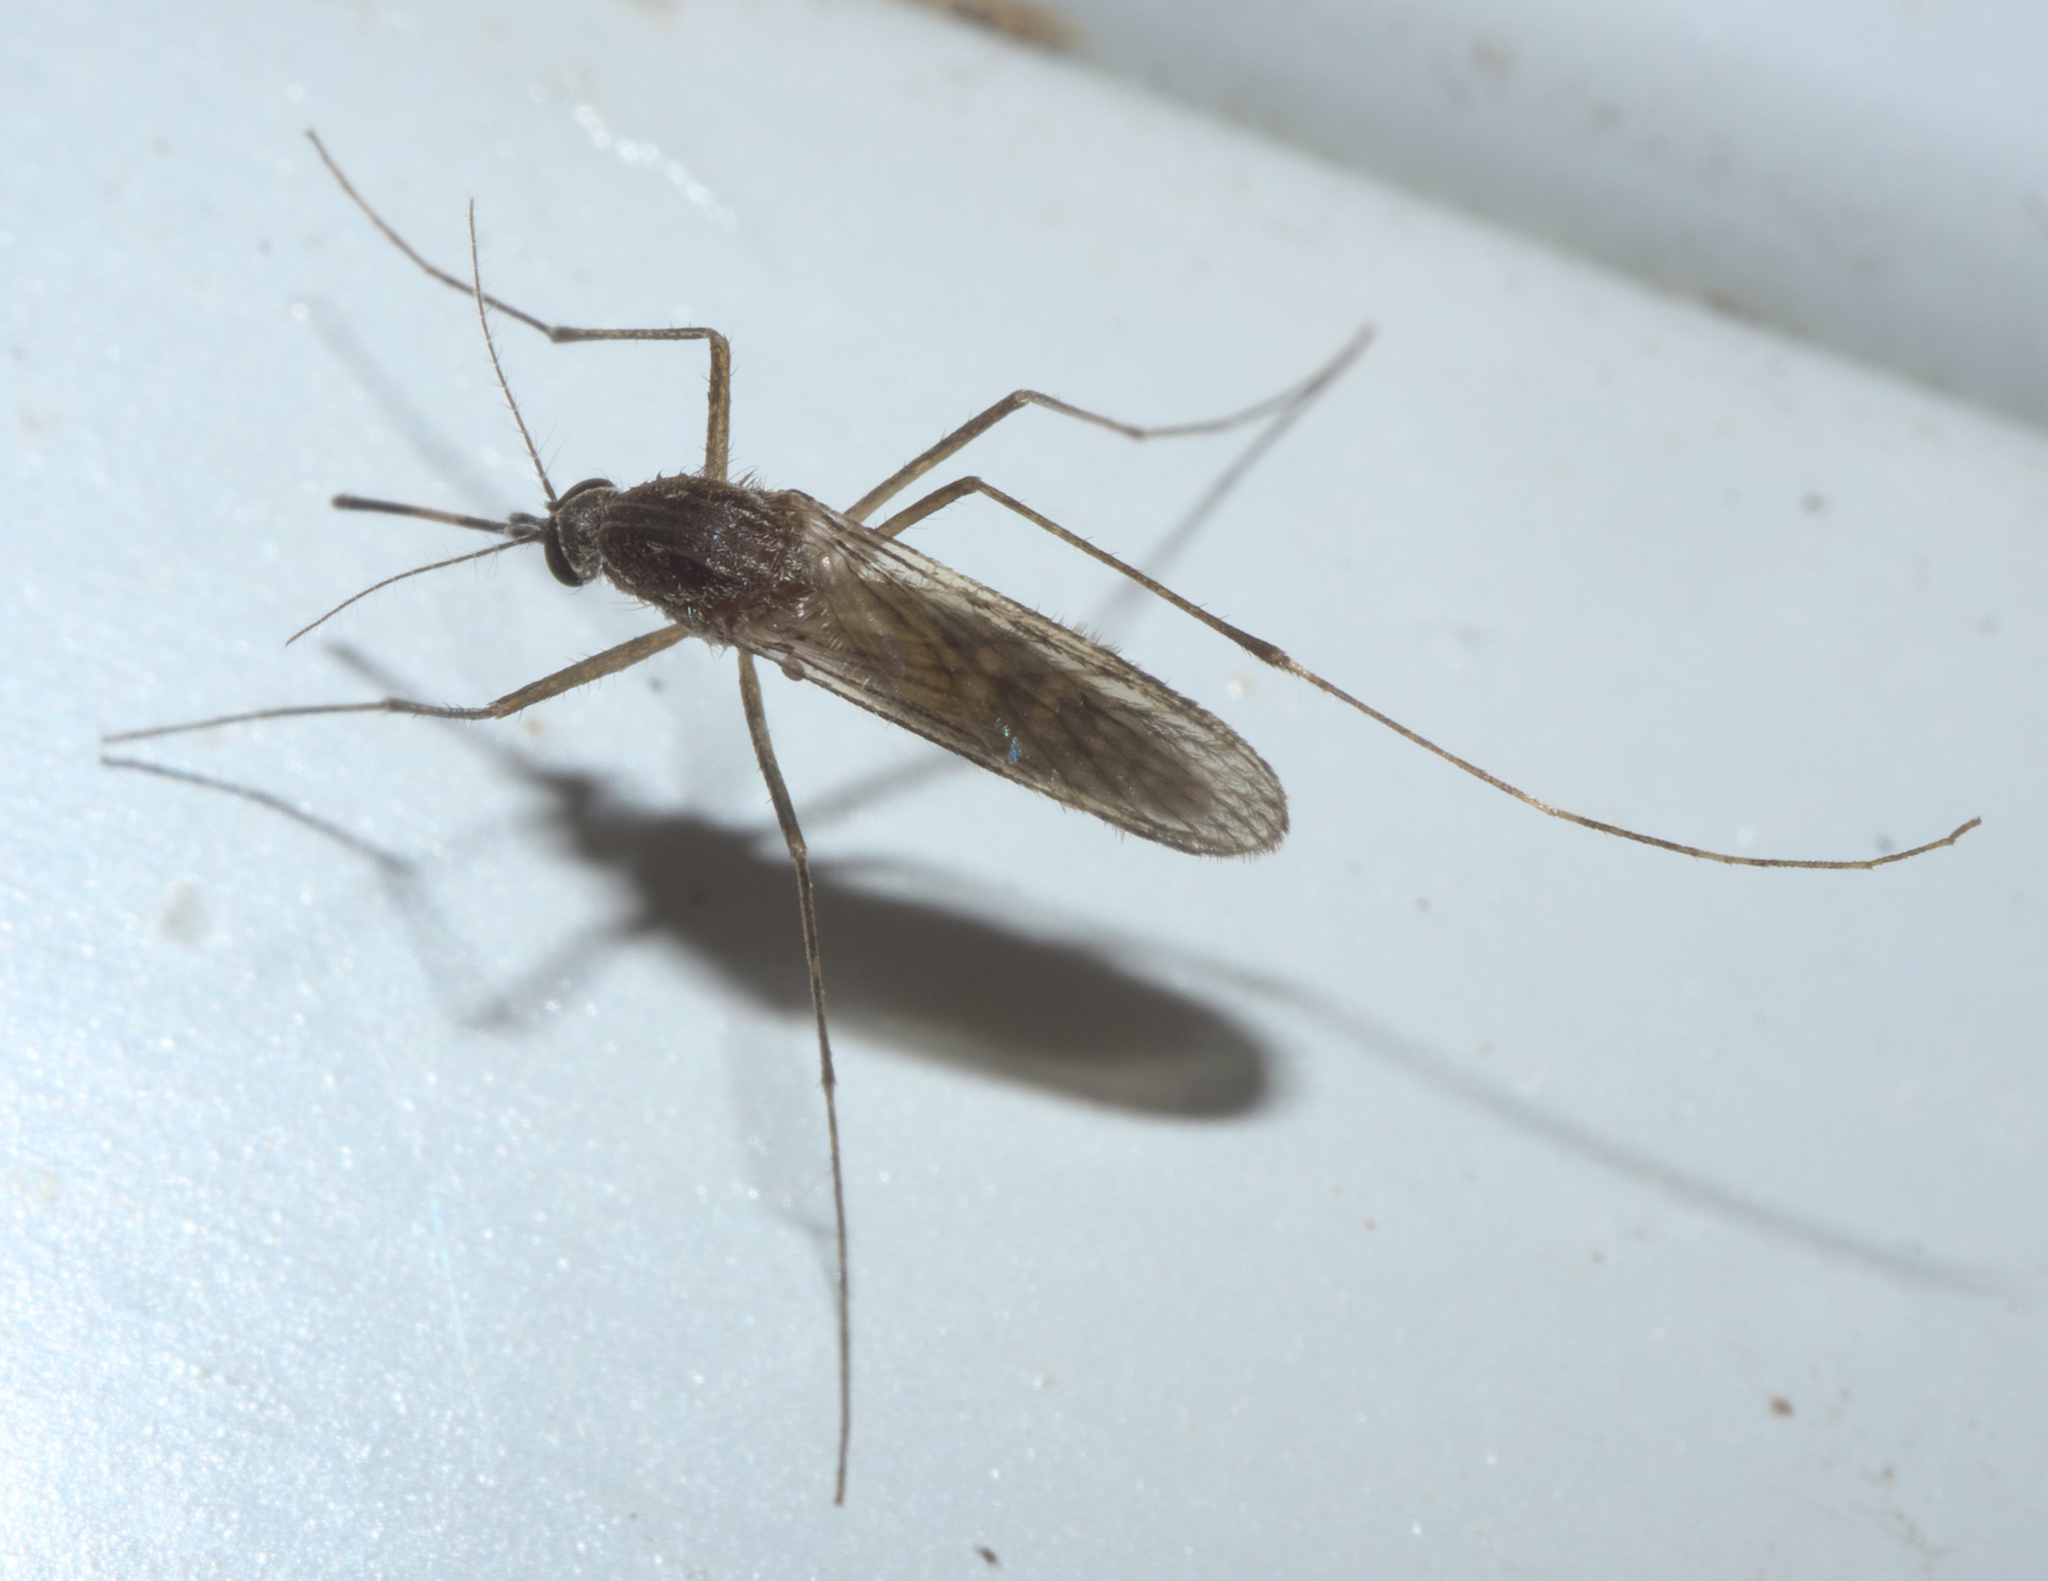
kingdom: Animalia
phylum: Arthropoda
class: Insecta
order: Diptera
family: Culicidae
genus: Culex
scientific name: Culex tarsalis
